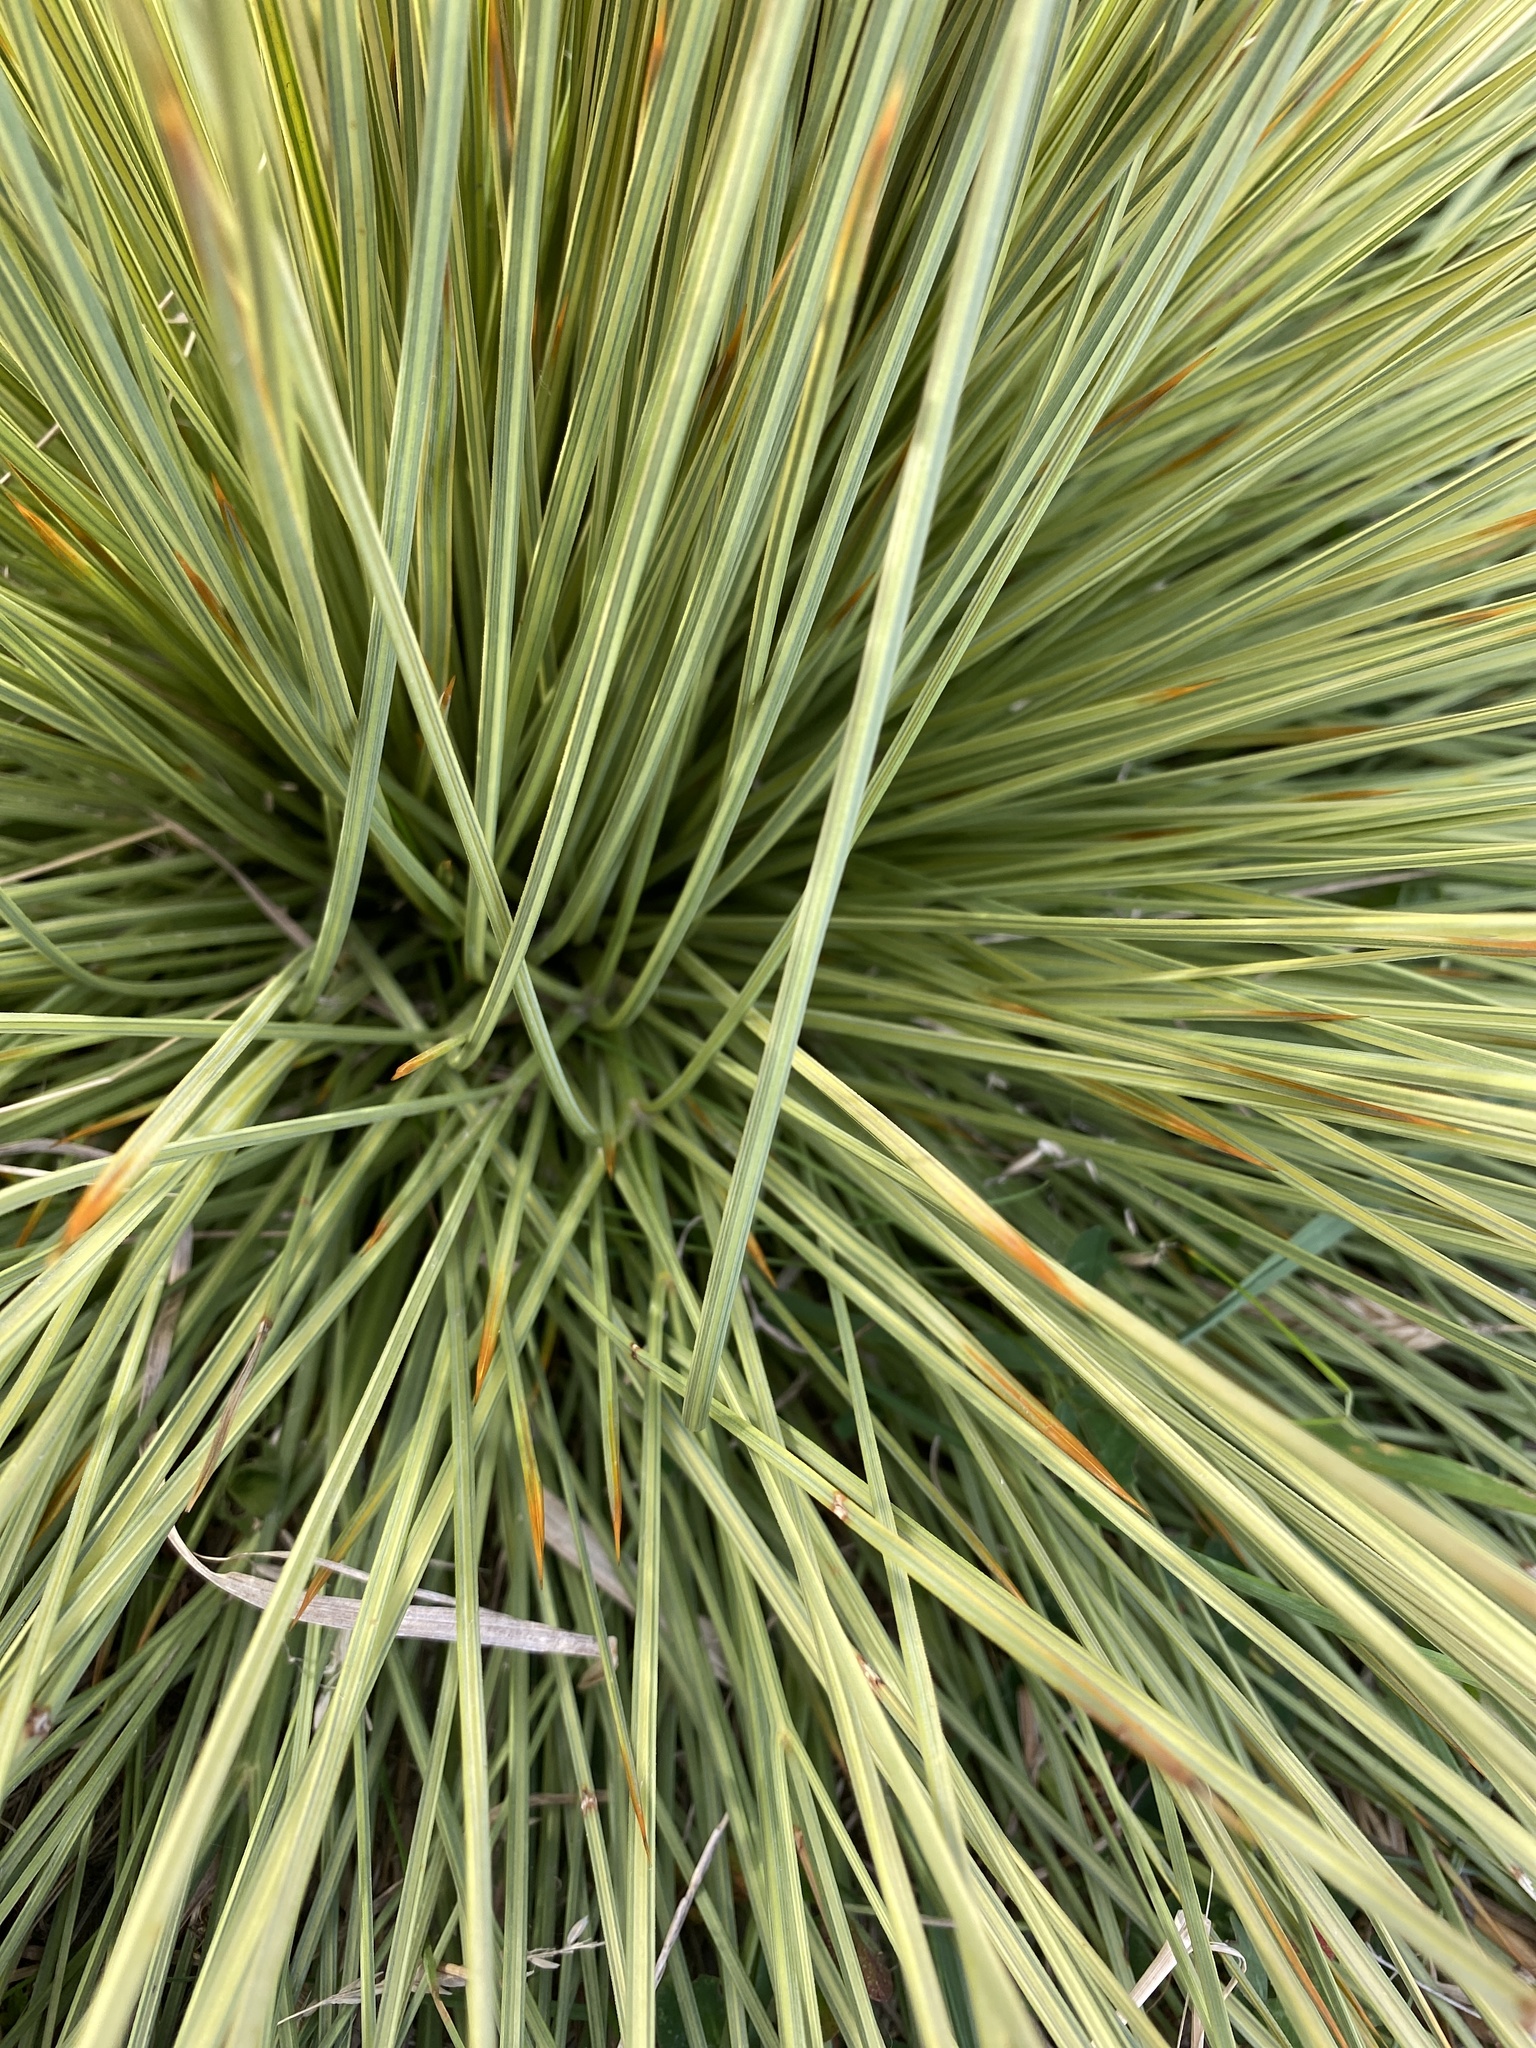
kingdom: Plantae
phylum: Tracheophyta
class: Magnoliopsida
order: Apiales
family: Apiaceae
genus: Aciphylla
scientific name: Aciphylla subflabellata
